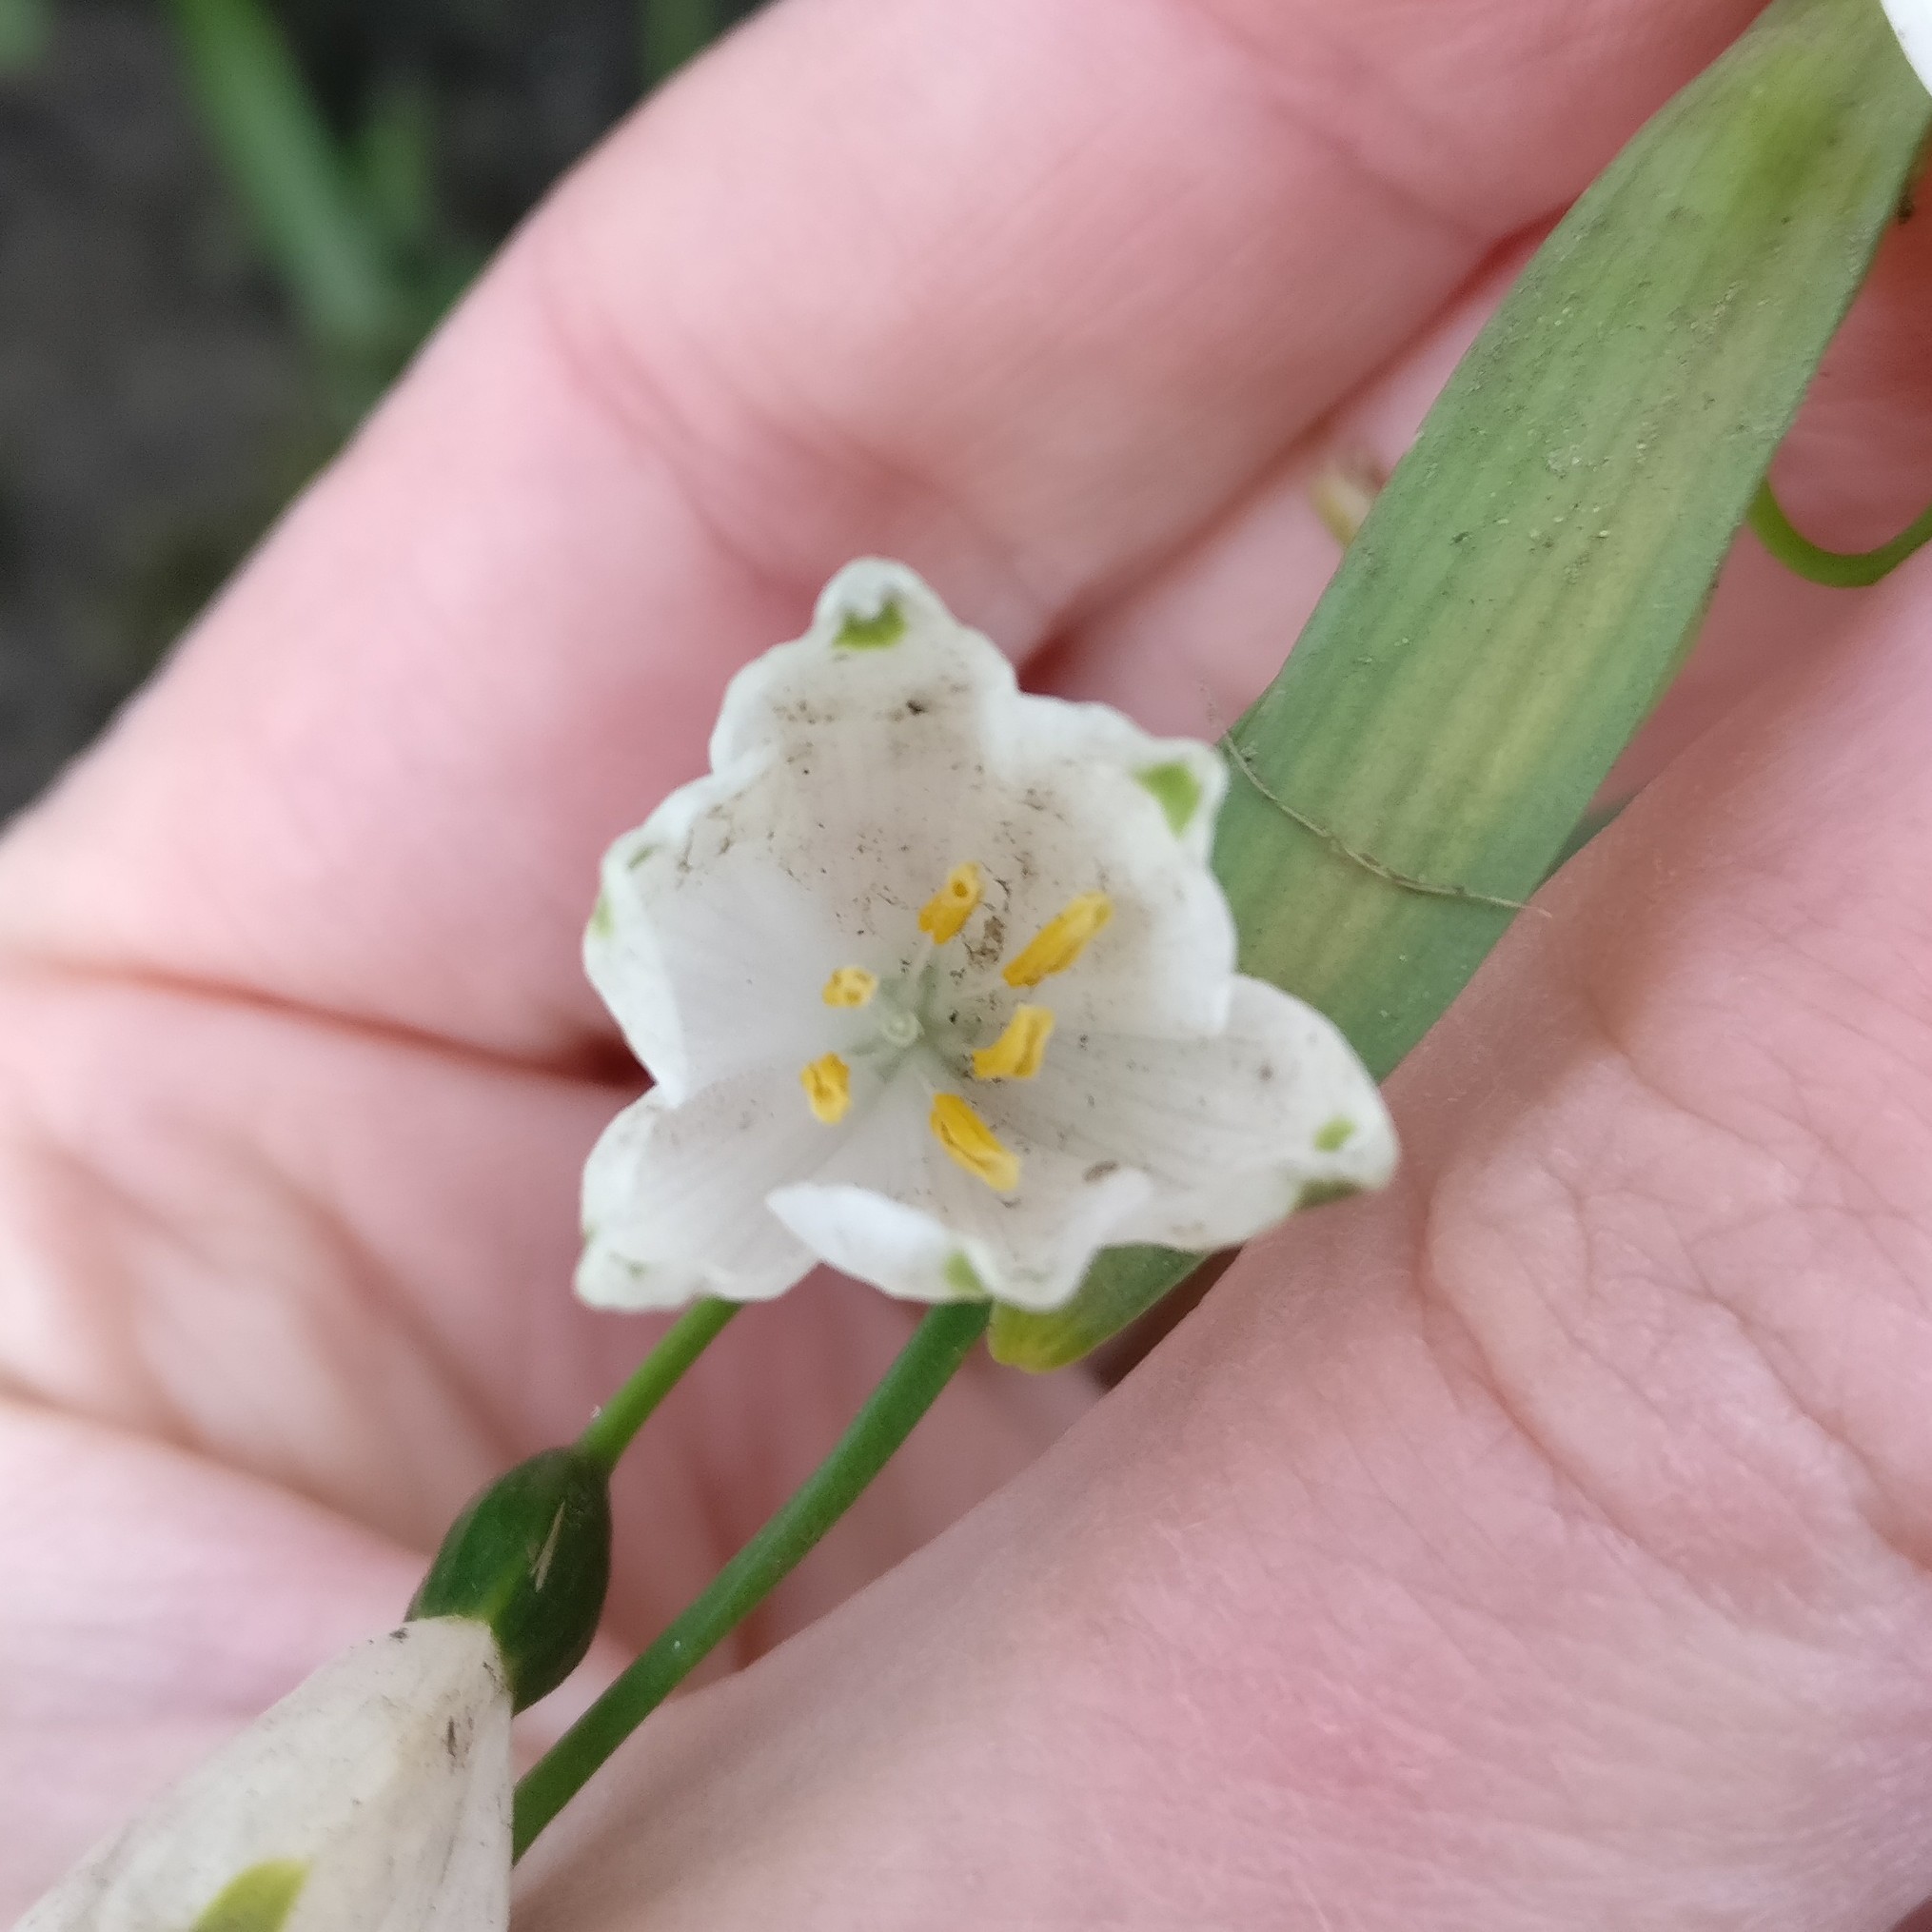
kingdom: Plantae
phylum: Tracheophyta
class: Liliopsida
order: Asparagales
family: Amaryllidaceae
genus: Leucojum
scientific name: Leucojum aestivum
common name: Summer snowflake
